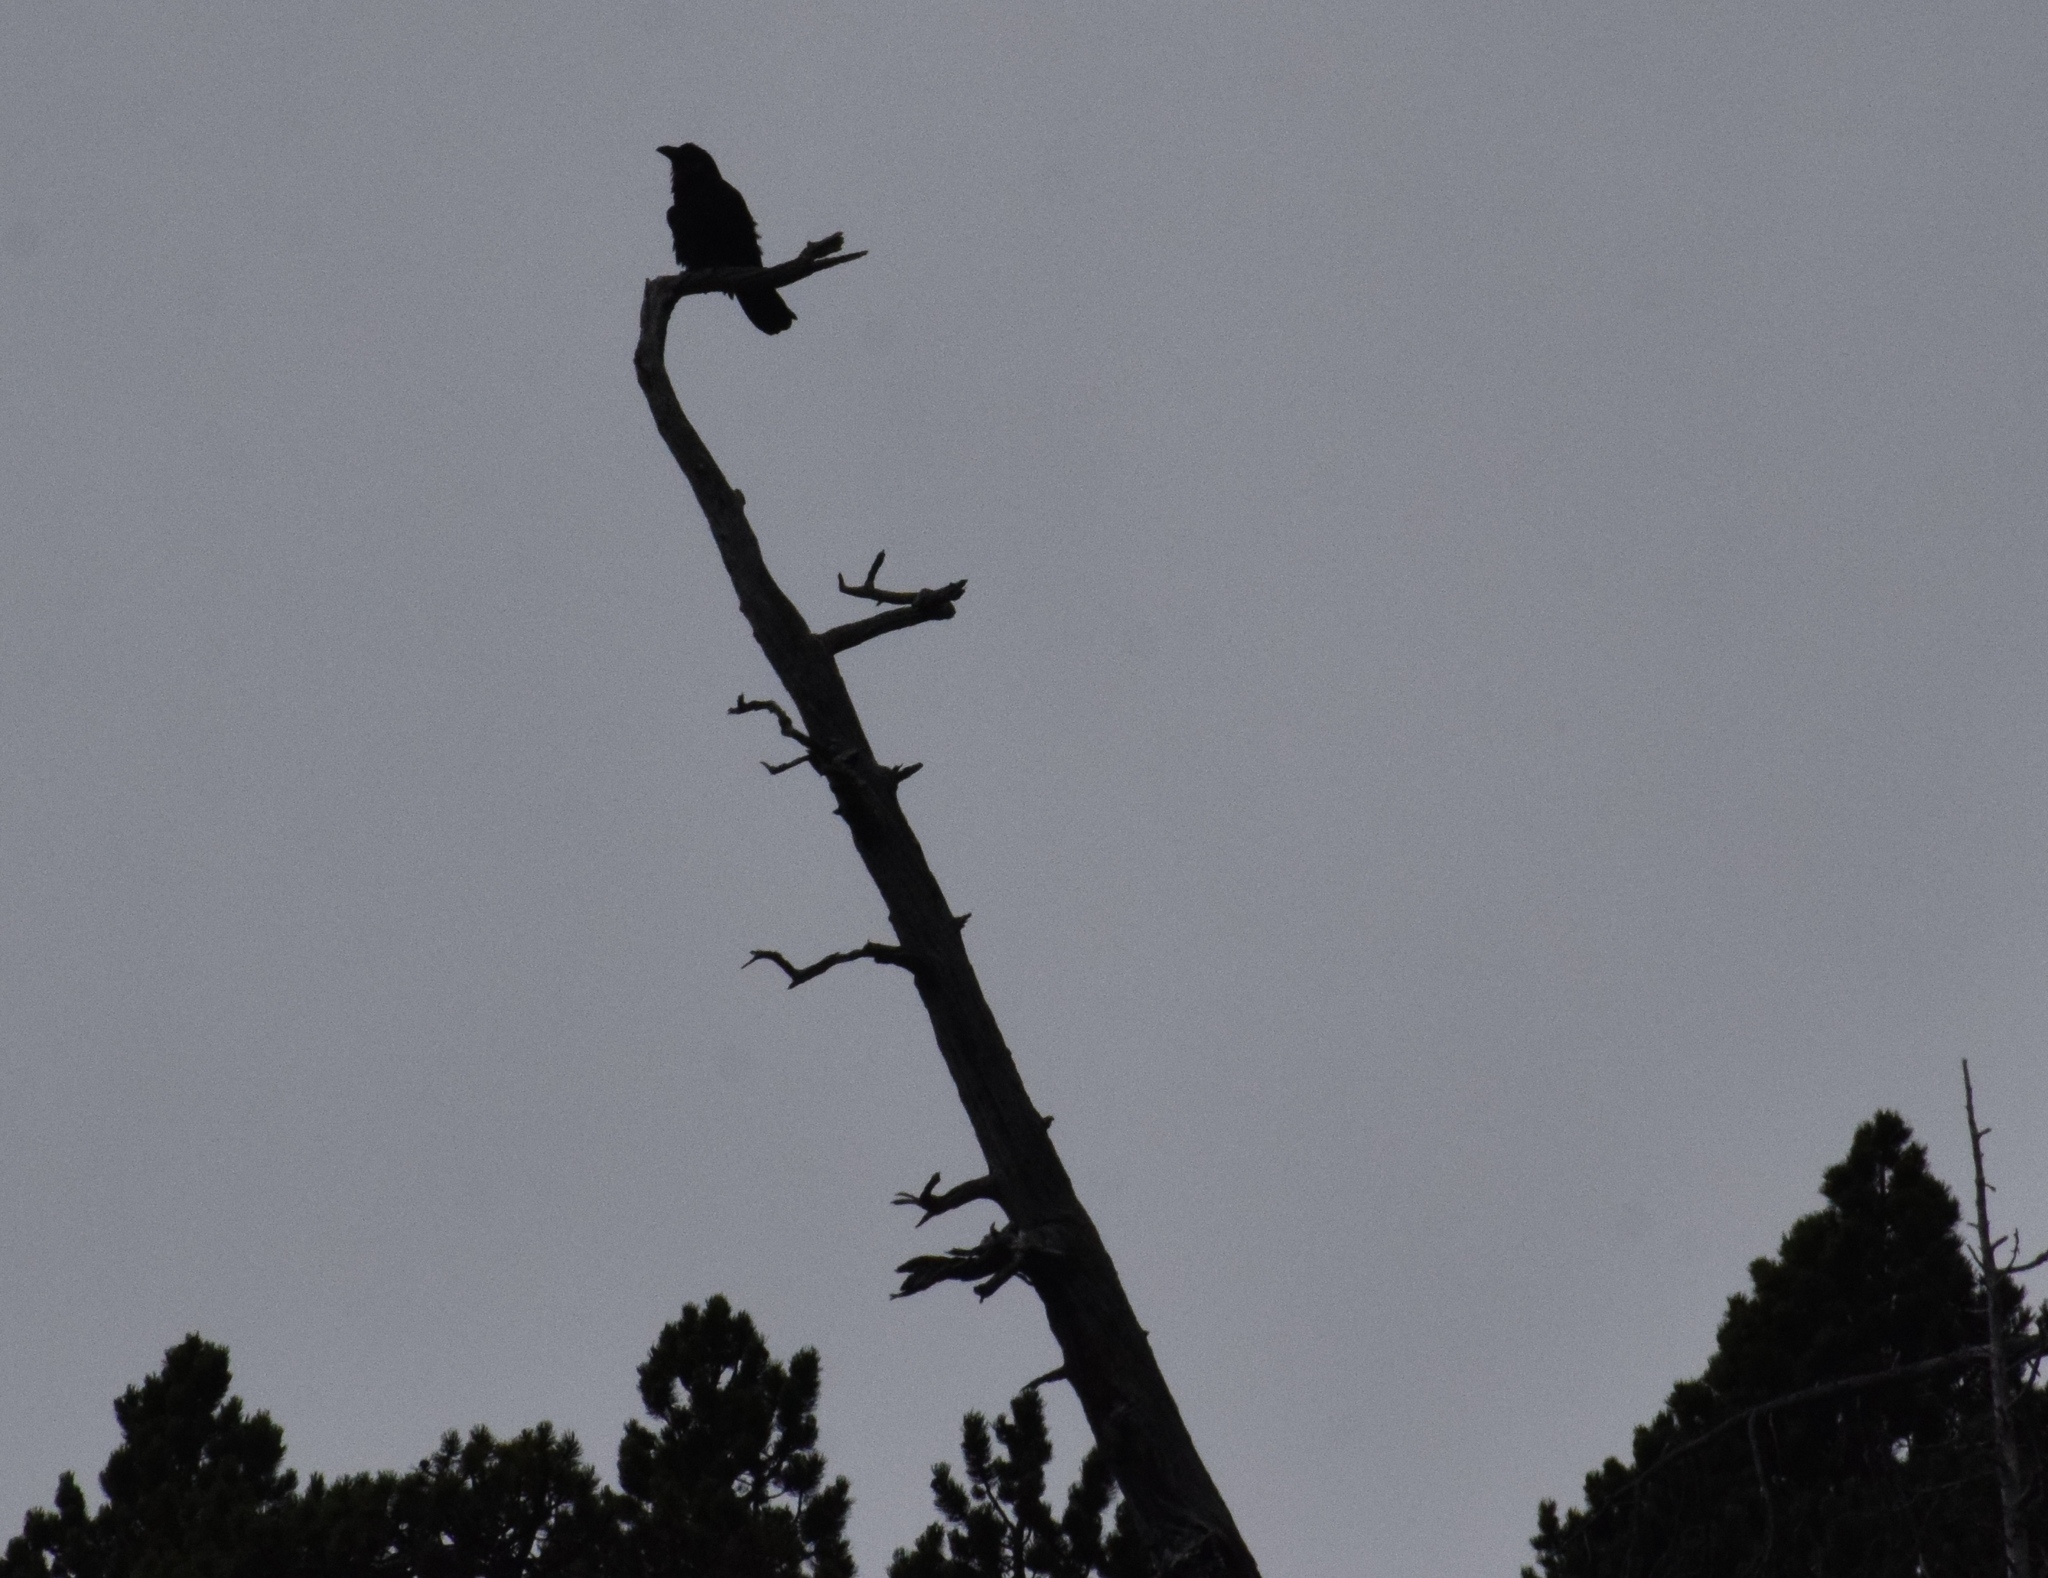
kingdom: Animalia
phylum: Chordata
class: Aves
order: Passeriformes
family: Corvidae
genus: Corvus
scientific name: Corvus corax
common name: Common raven
